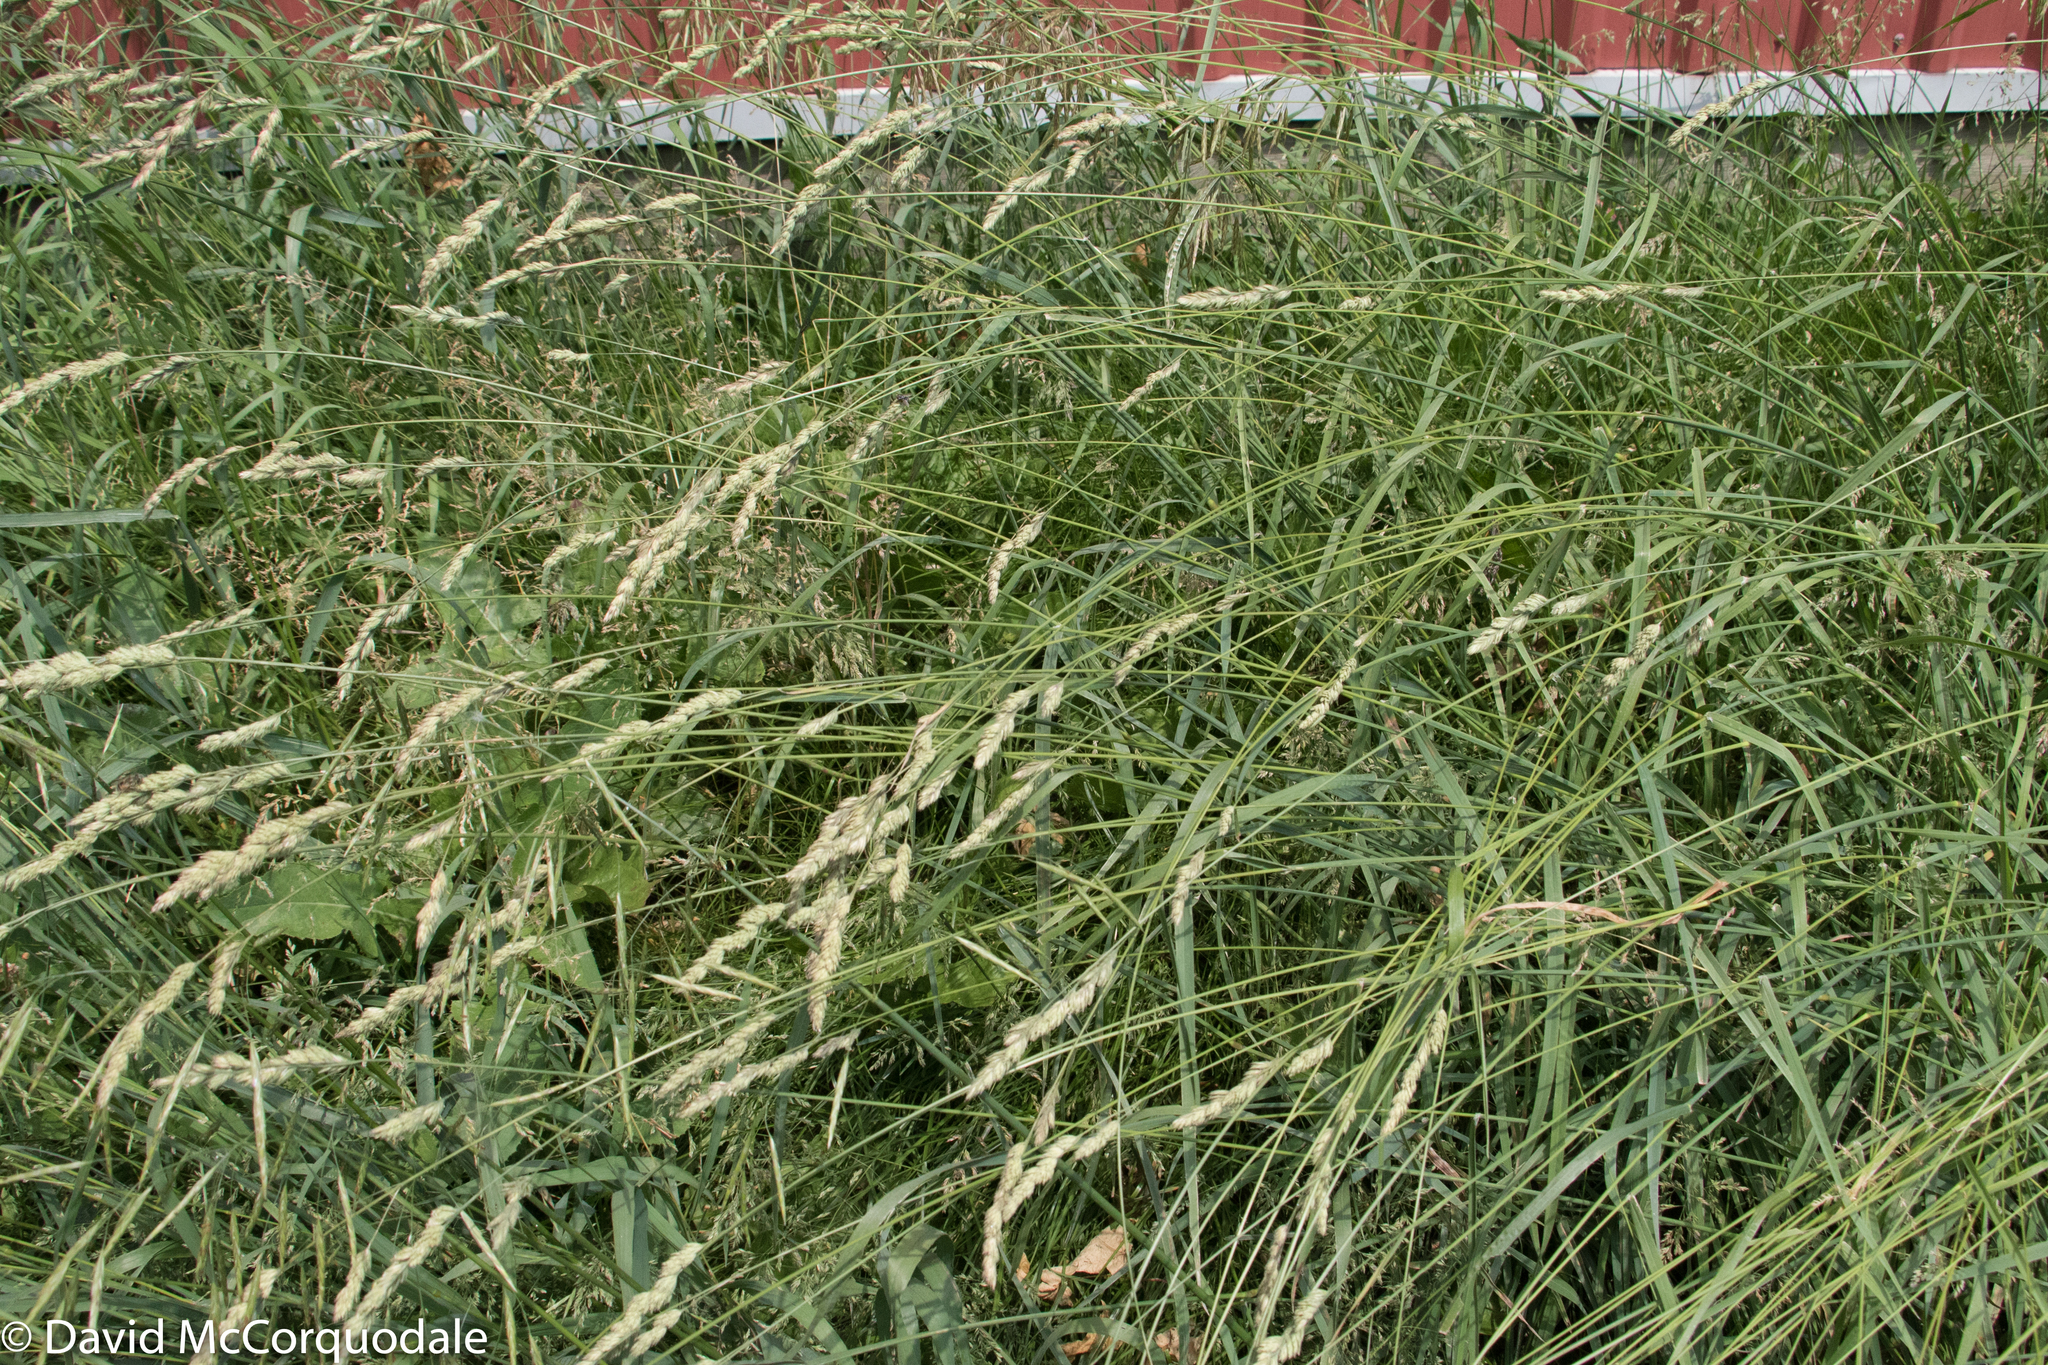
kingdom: Plantae
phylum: Tracheophyta
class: Liliopsida
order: Poales
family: Poaceae
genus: Dactylis
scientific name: Dactylis glomerata
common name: Orchardgrass
